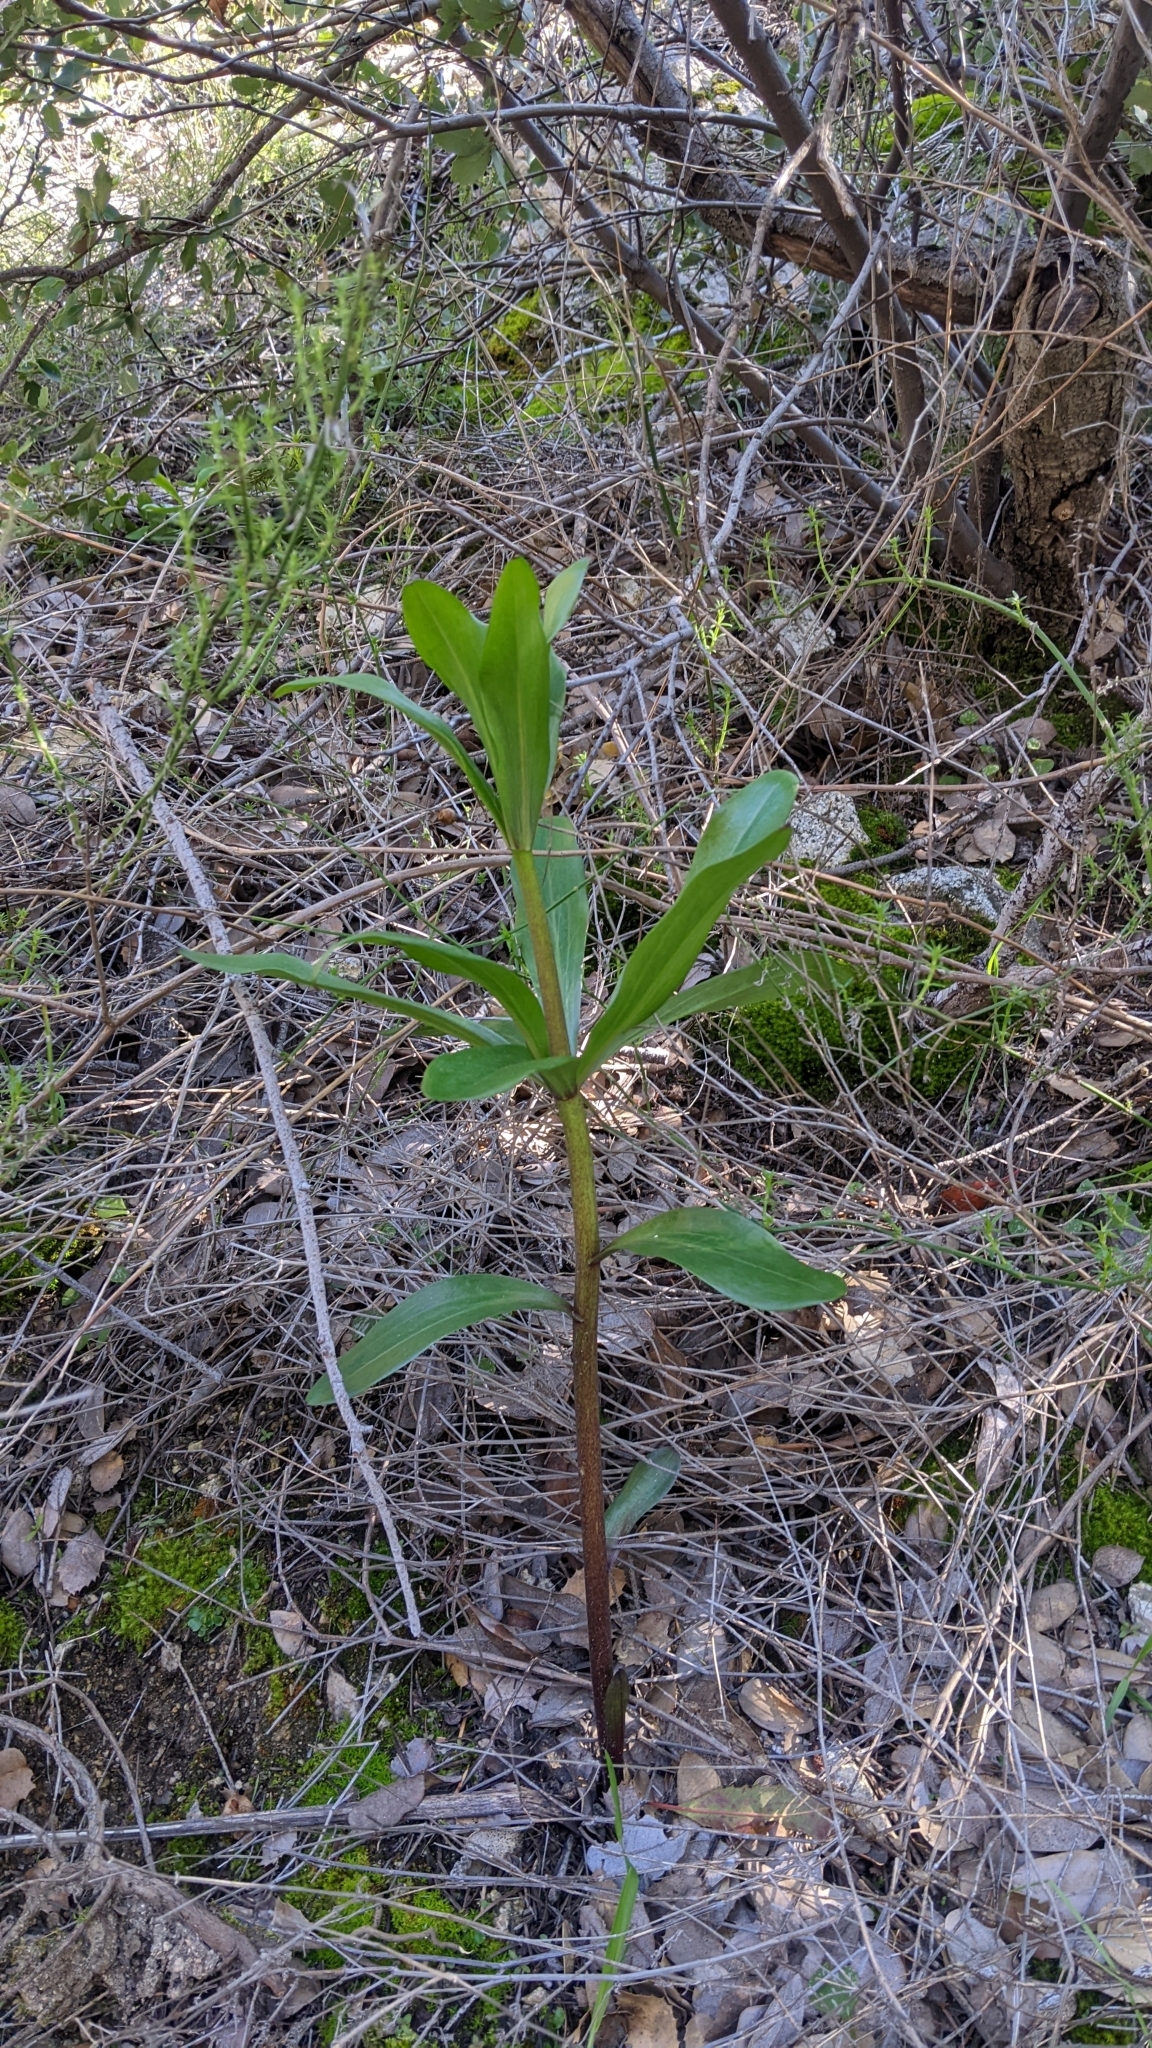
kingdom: Plantae
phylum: Tracheophyta
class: Liliopsida
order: Liliales
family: Liliaceae
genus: Lilium
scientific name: Lilium humboldtii
